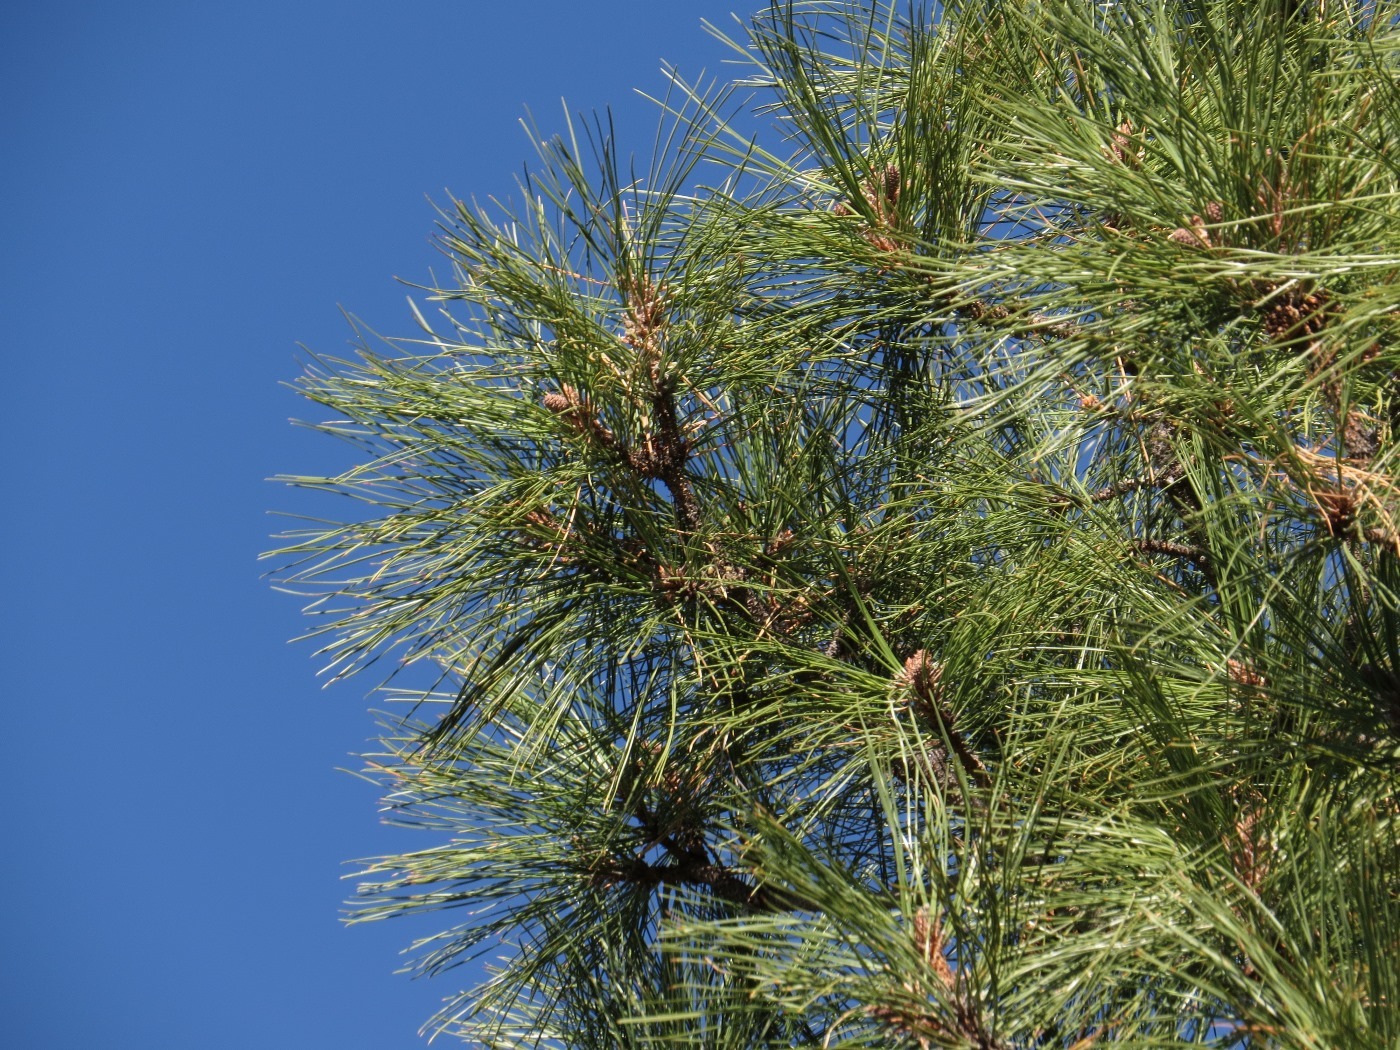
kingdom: Plantae
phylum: Tracheophyta
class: Pinopsida
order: Pinales
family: Pinaceae
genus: Pinus
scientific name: Pinus ponderosa
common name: Western yellow-pine
